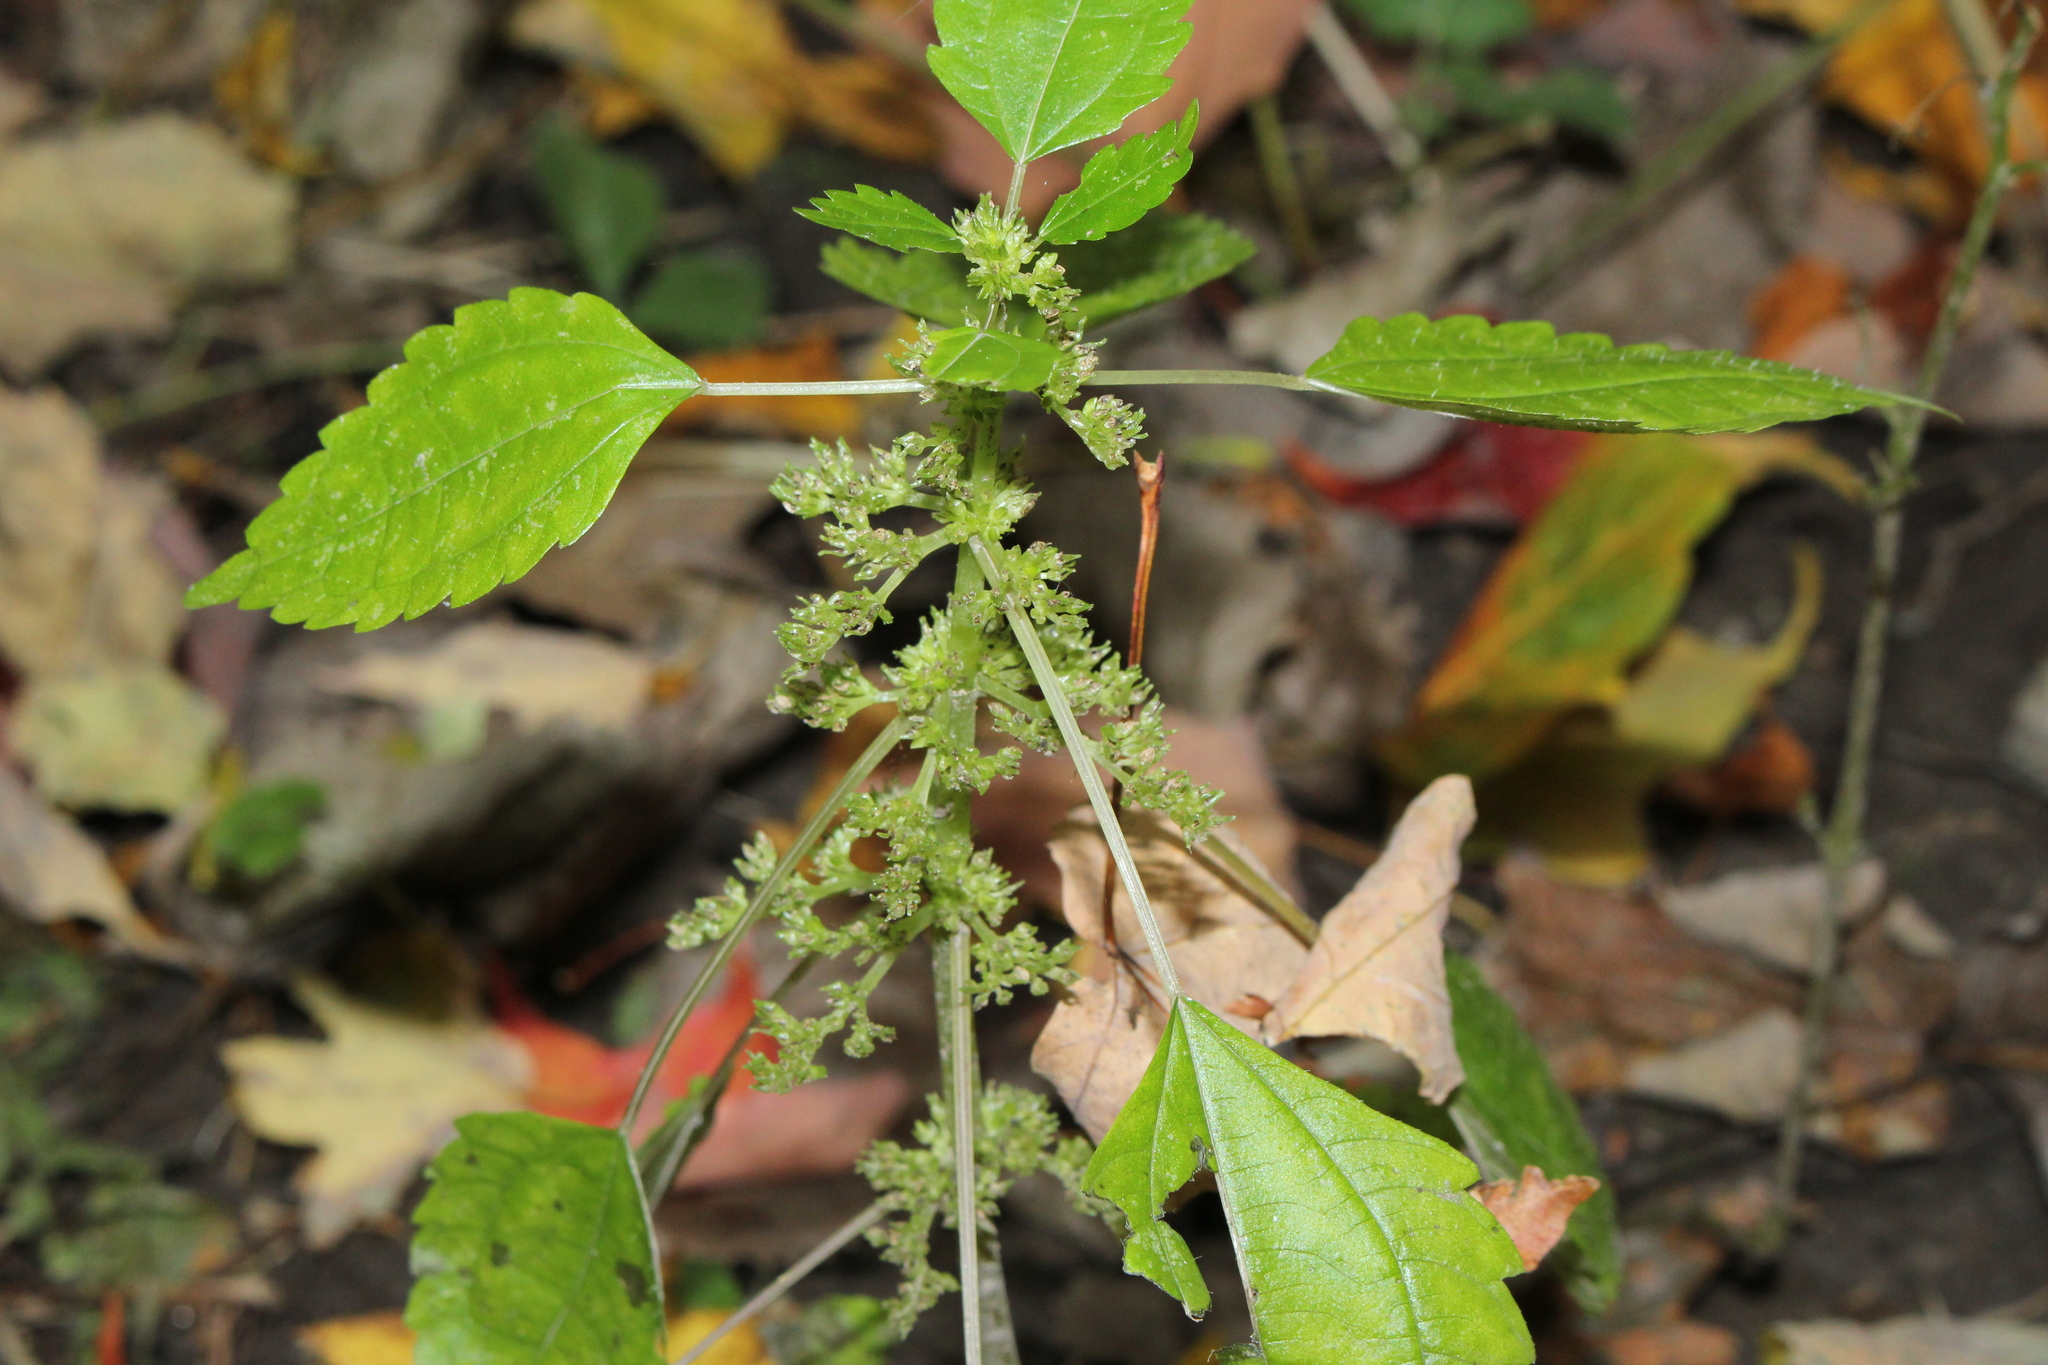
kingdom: Plantae
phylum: Tracheophyta
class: Magnoliopsida
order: Rosales
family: Urticaceae
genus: Pilea
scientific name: Pilea pumila
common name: Clearweed
